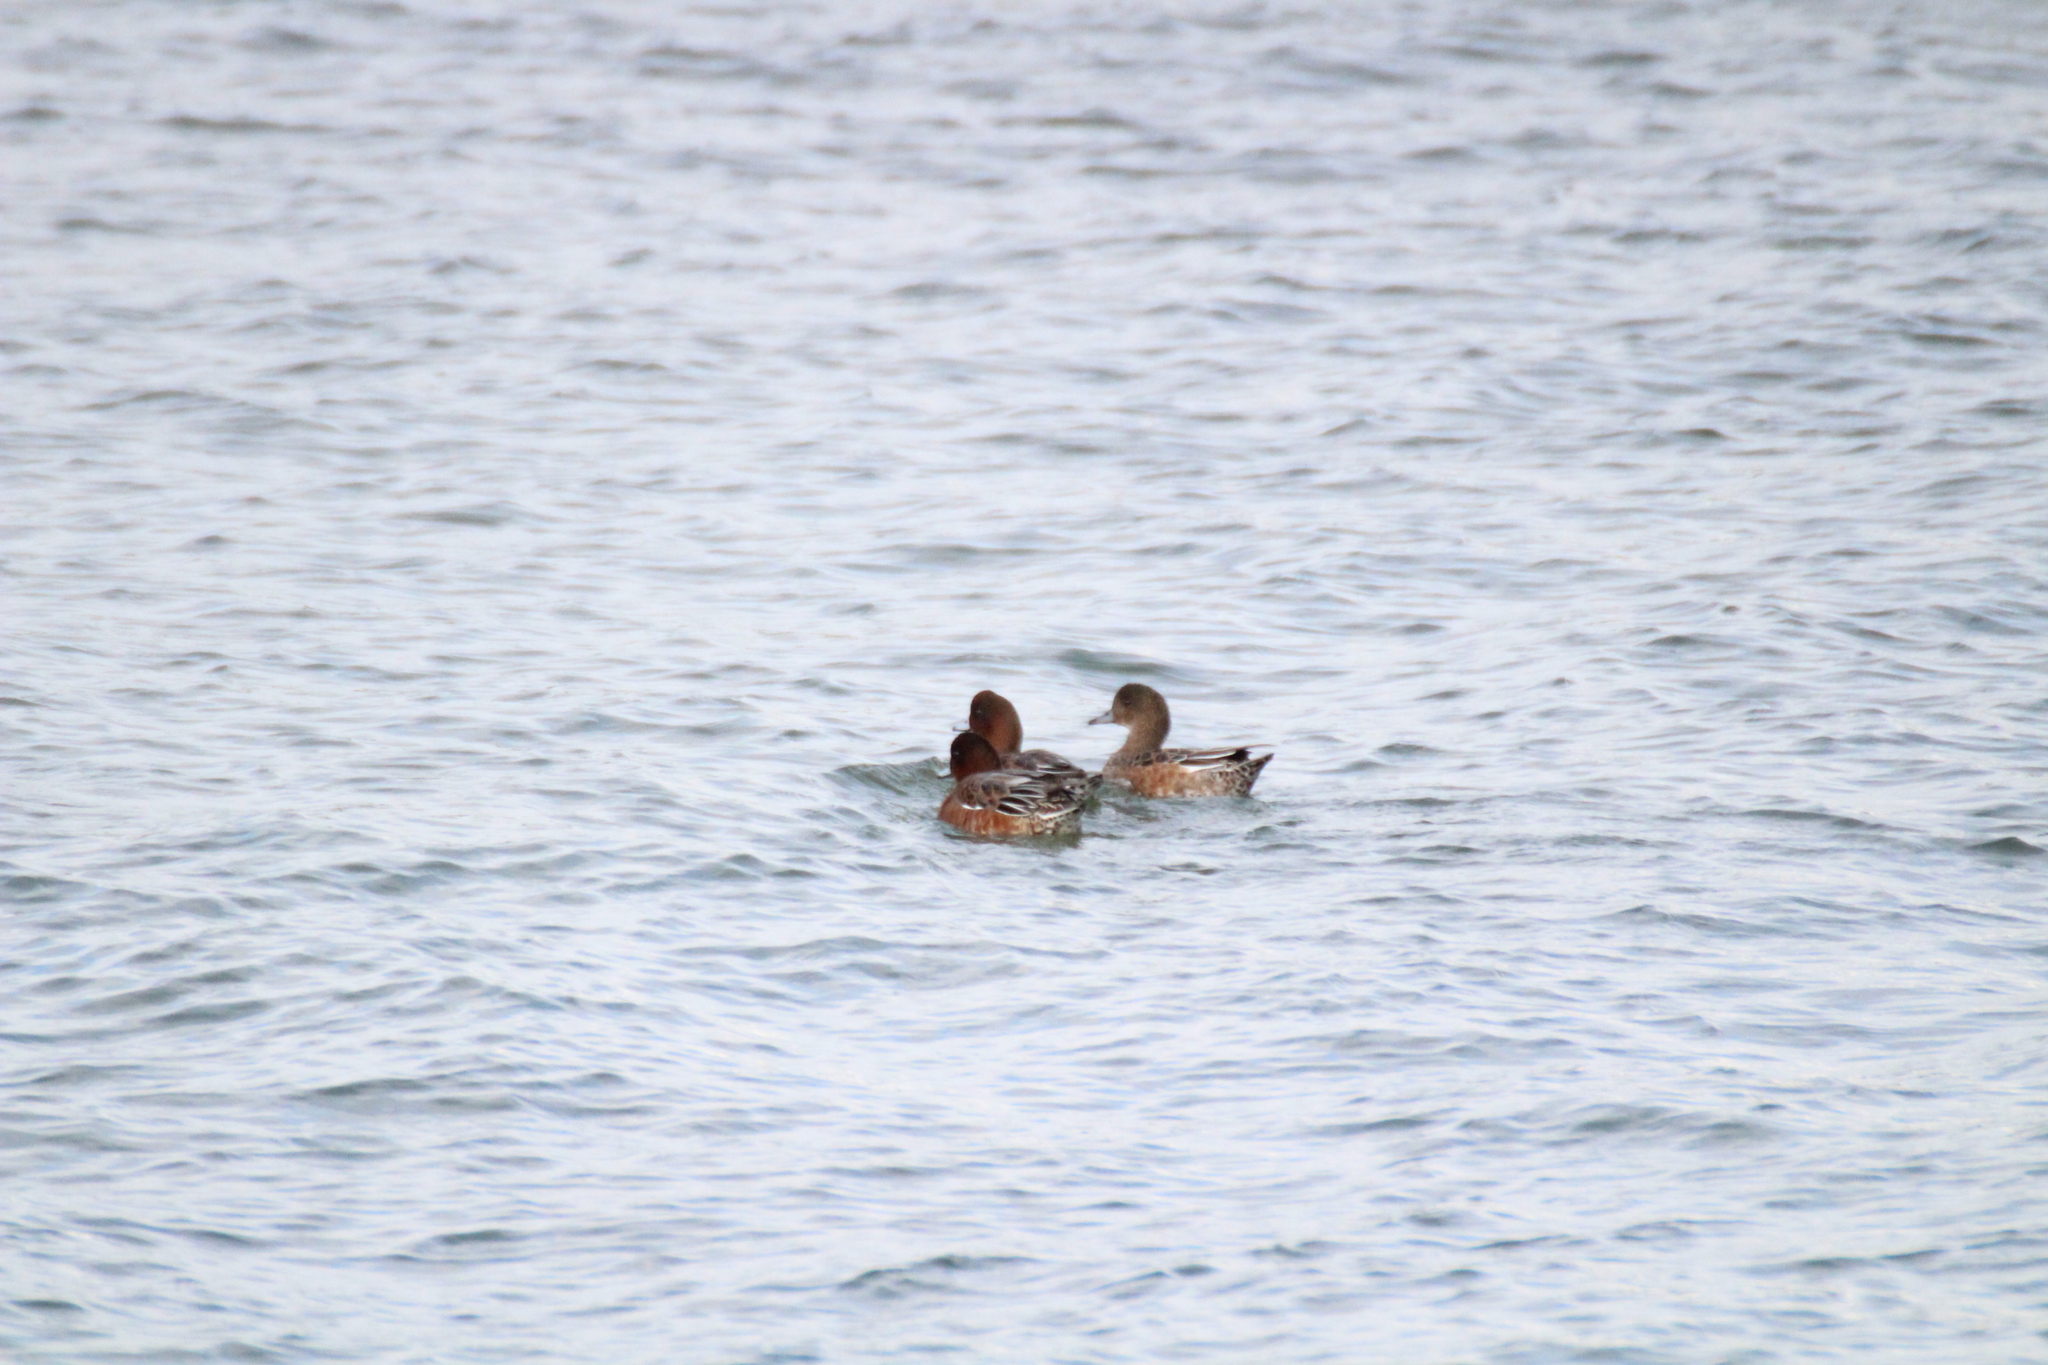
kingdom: Animalia
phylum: Chordata
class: Aves
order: Anseriformes
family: Anatidae
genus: Mareca
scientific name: Mareca penelope
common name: Eurasian wigeon
